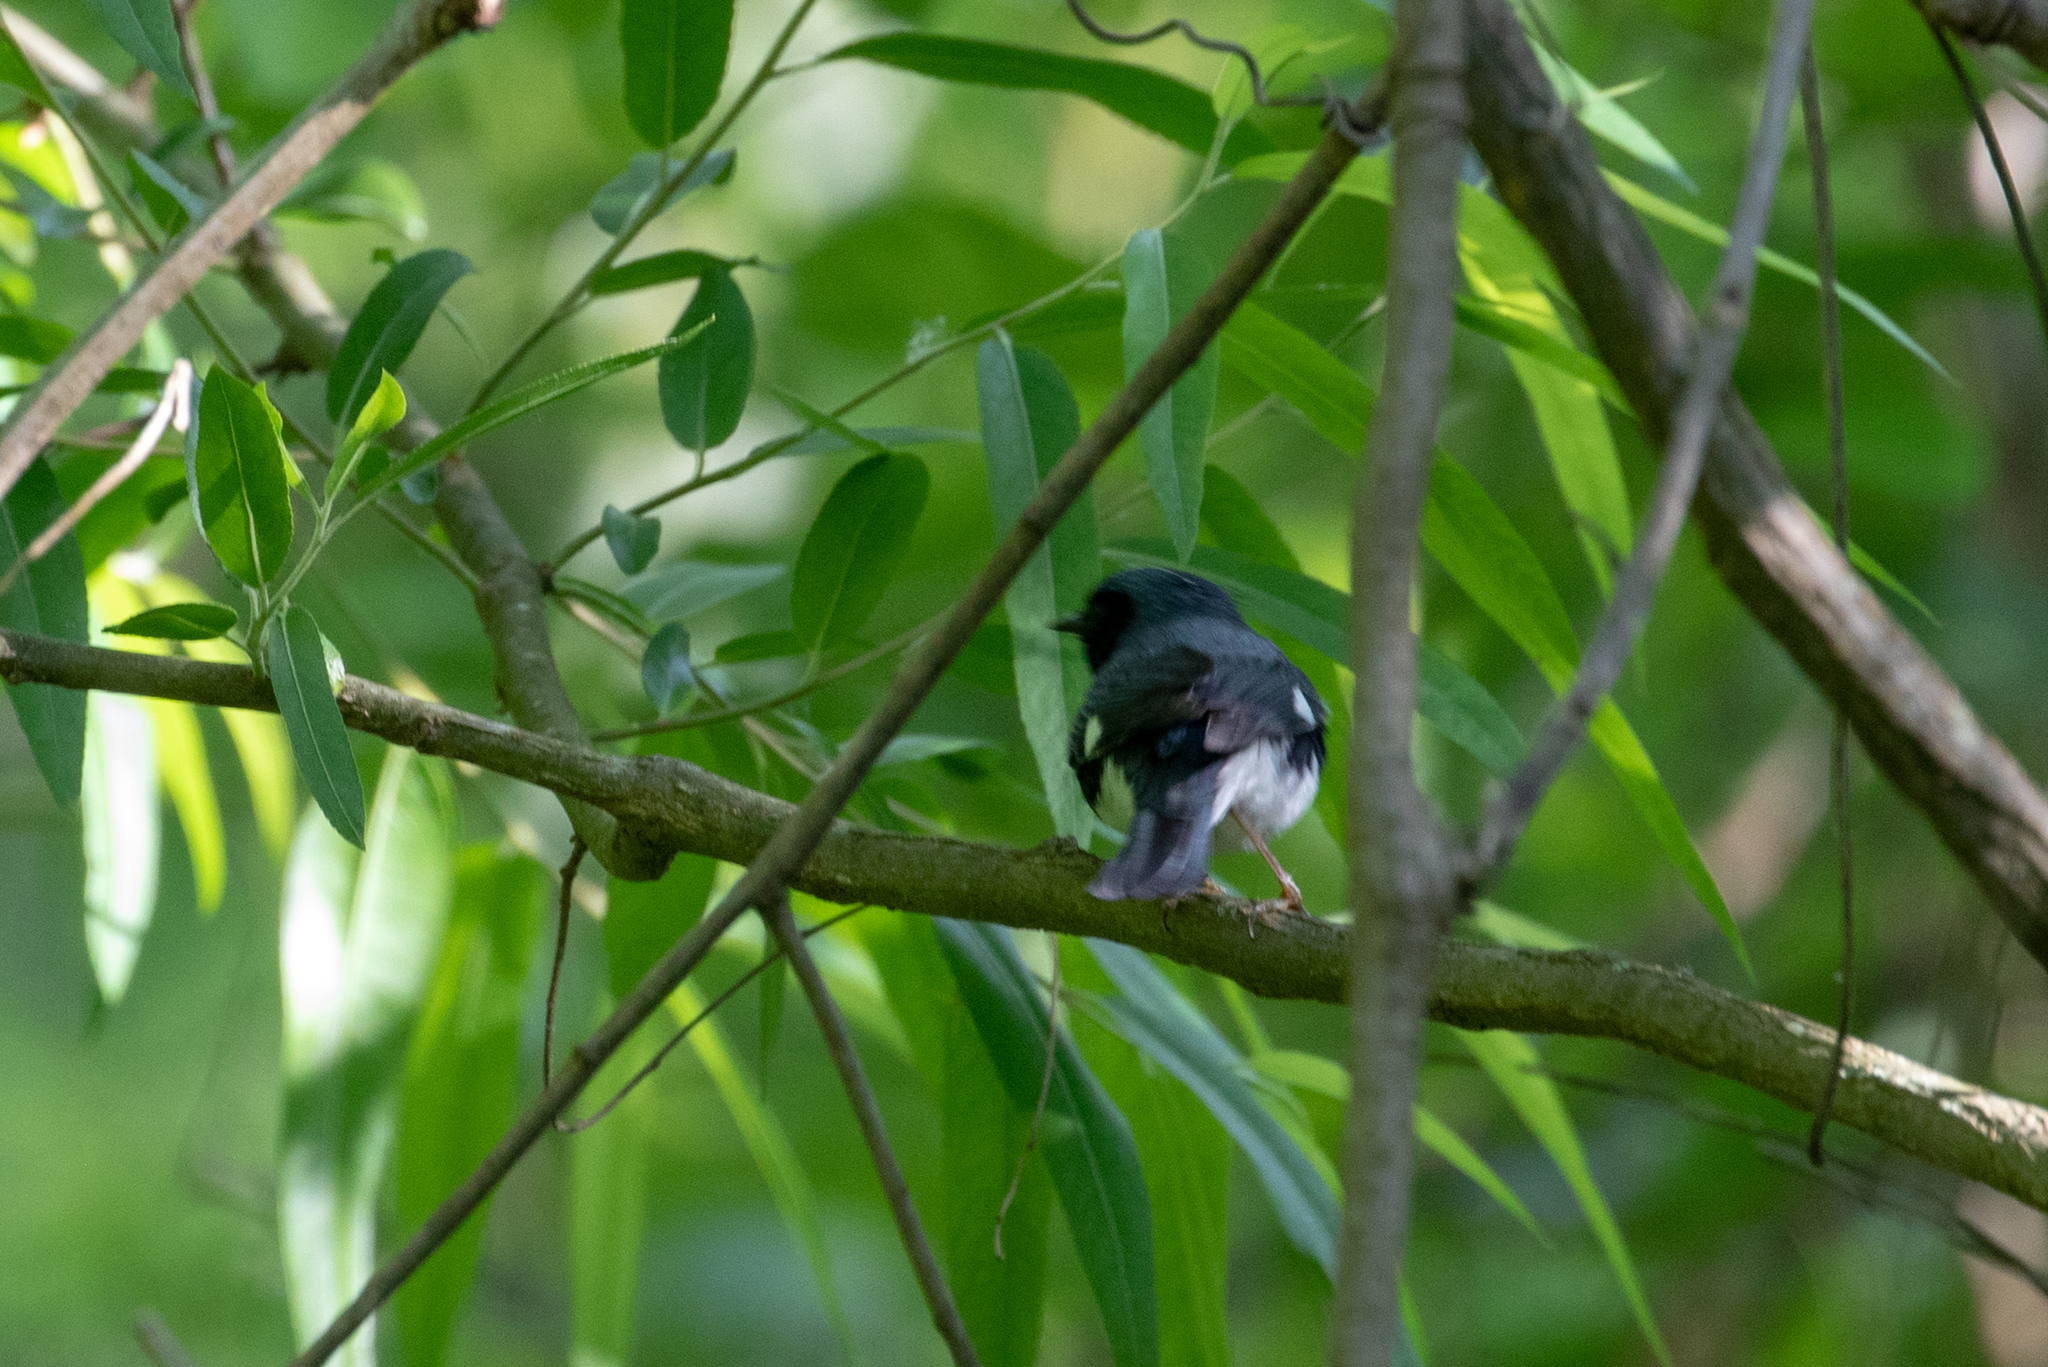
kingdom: Animalia
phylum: Chordata
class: Aves
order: Passeriformes
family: Parulidae
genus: Setophaga
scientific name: Setophaga caerulescens
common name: Black-throated blue warbler
